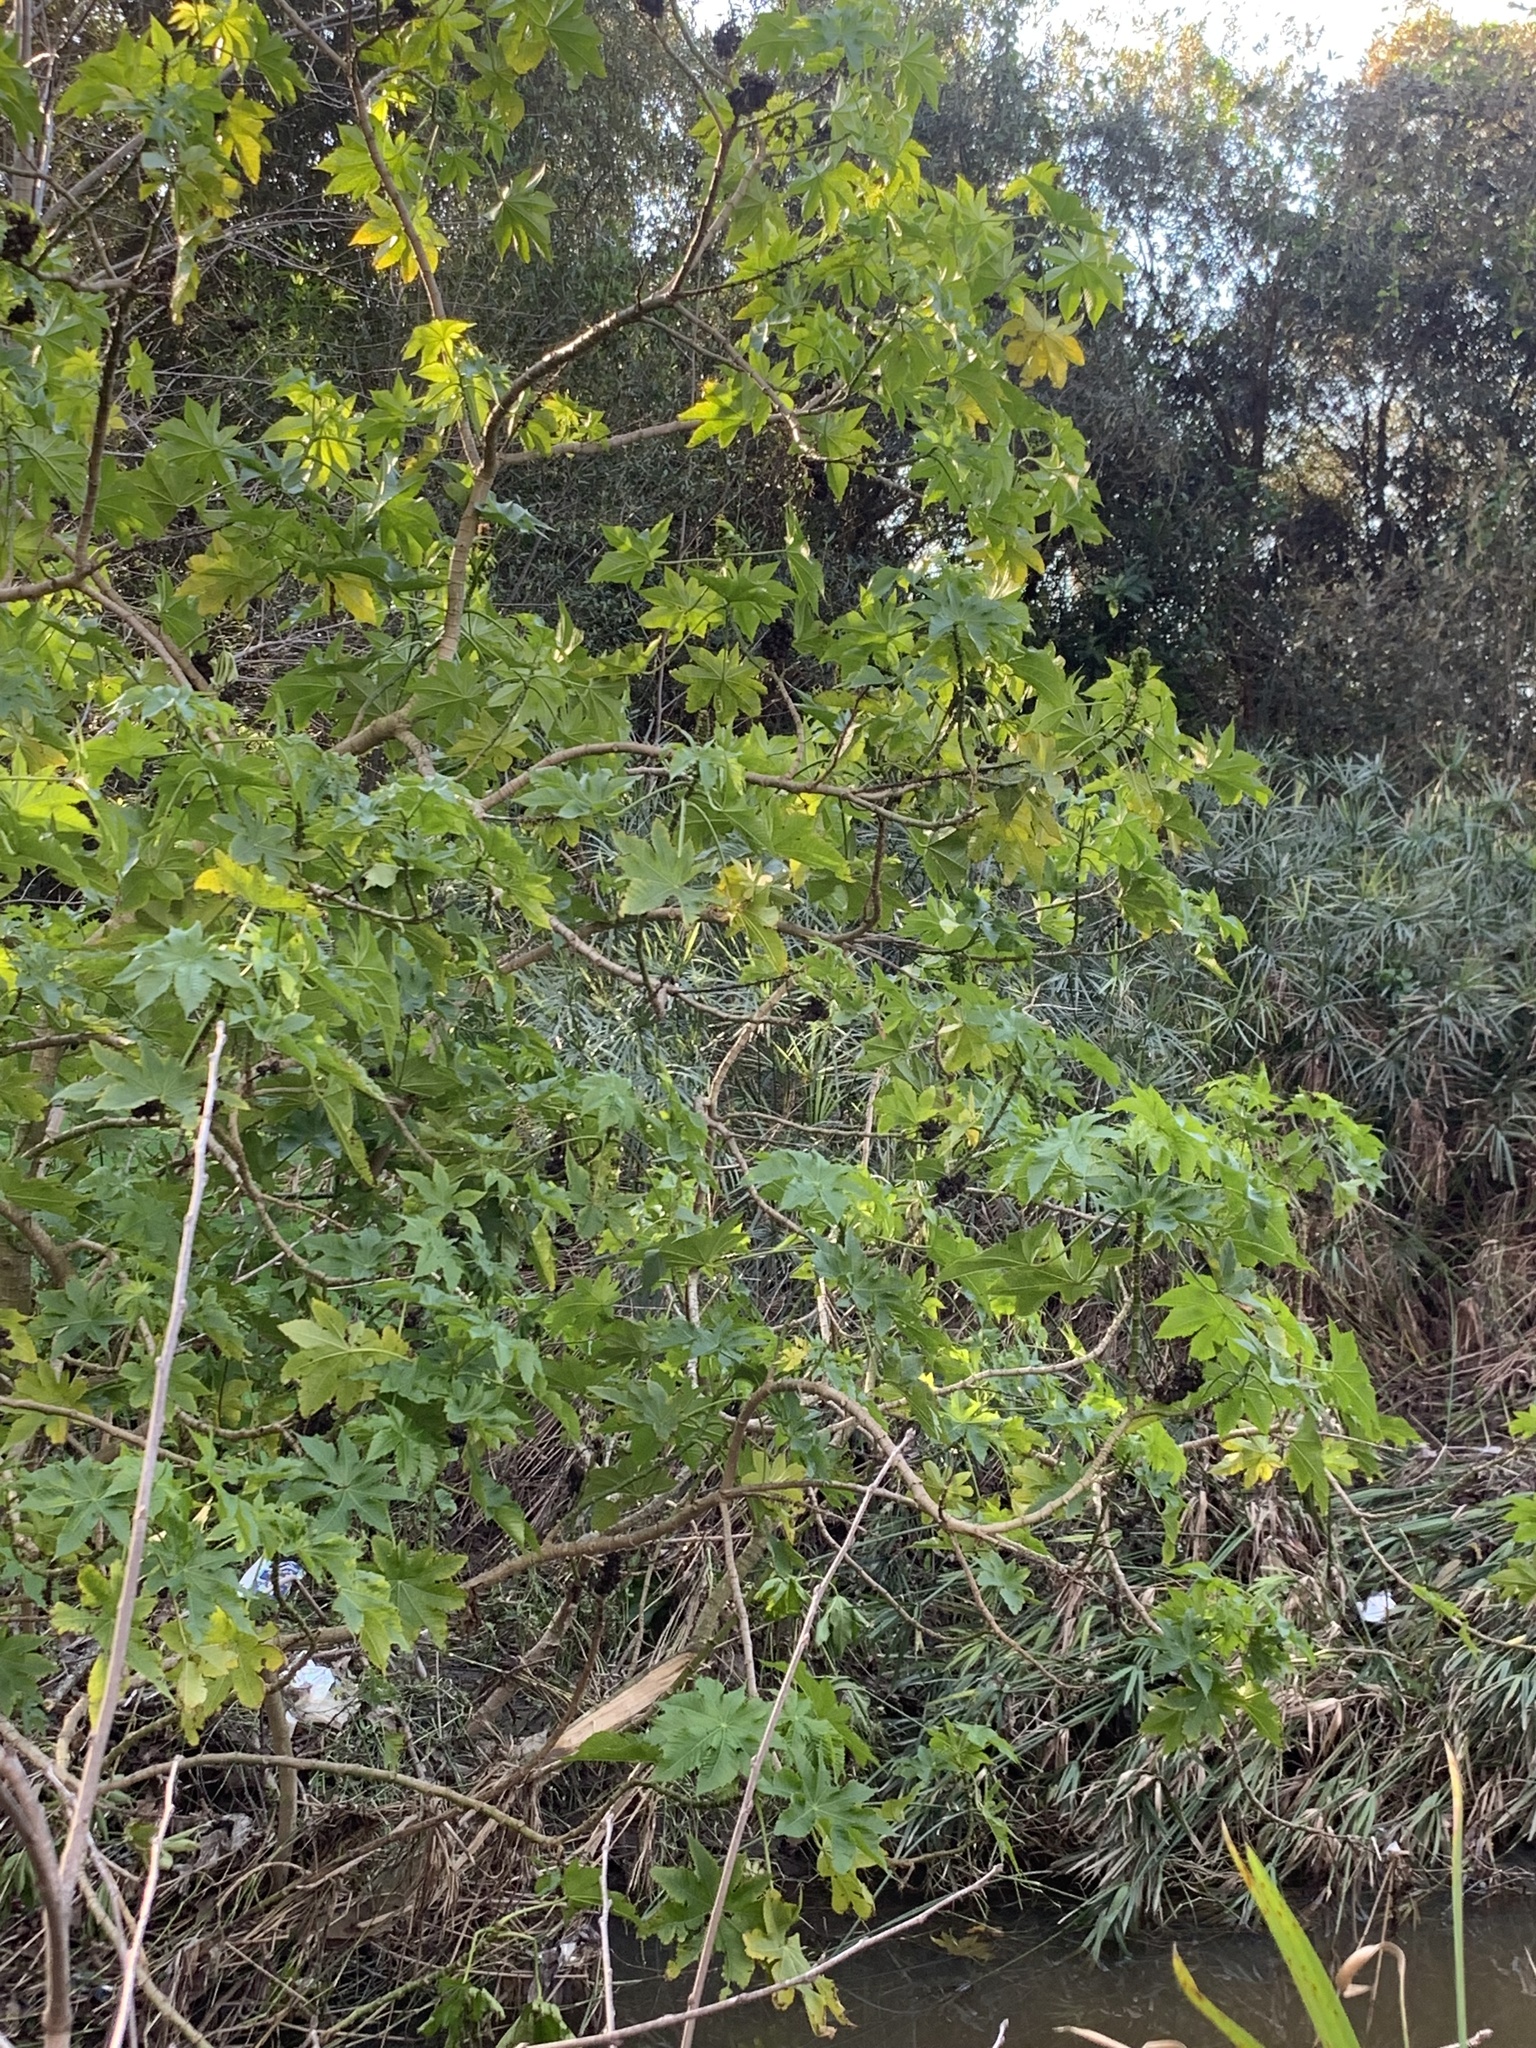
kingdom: Plantae
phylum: Tracheophyta
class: Magnoliopsida
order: Malpighiales
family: Euphorbiaceae
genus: Ricinus
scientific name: Ricinus communis
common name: Castor-oil-plant
